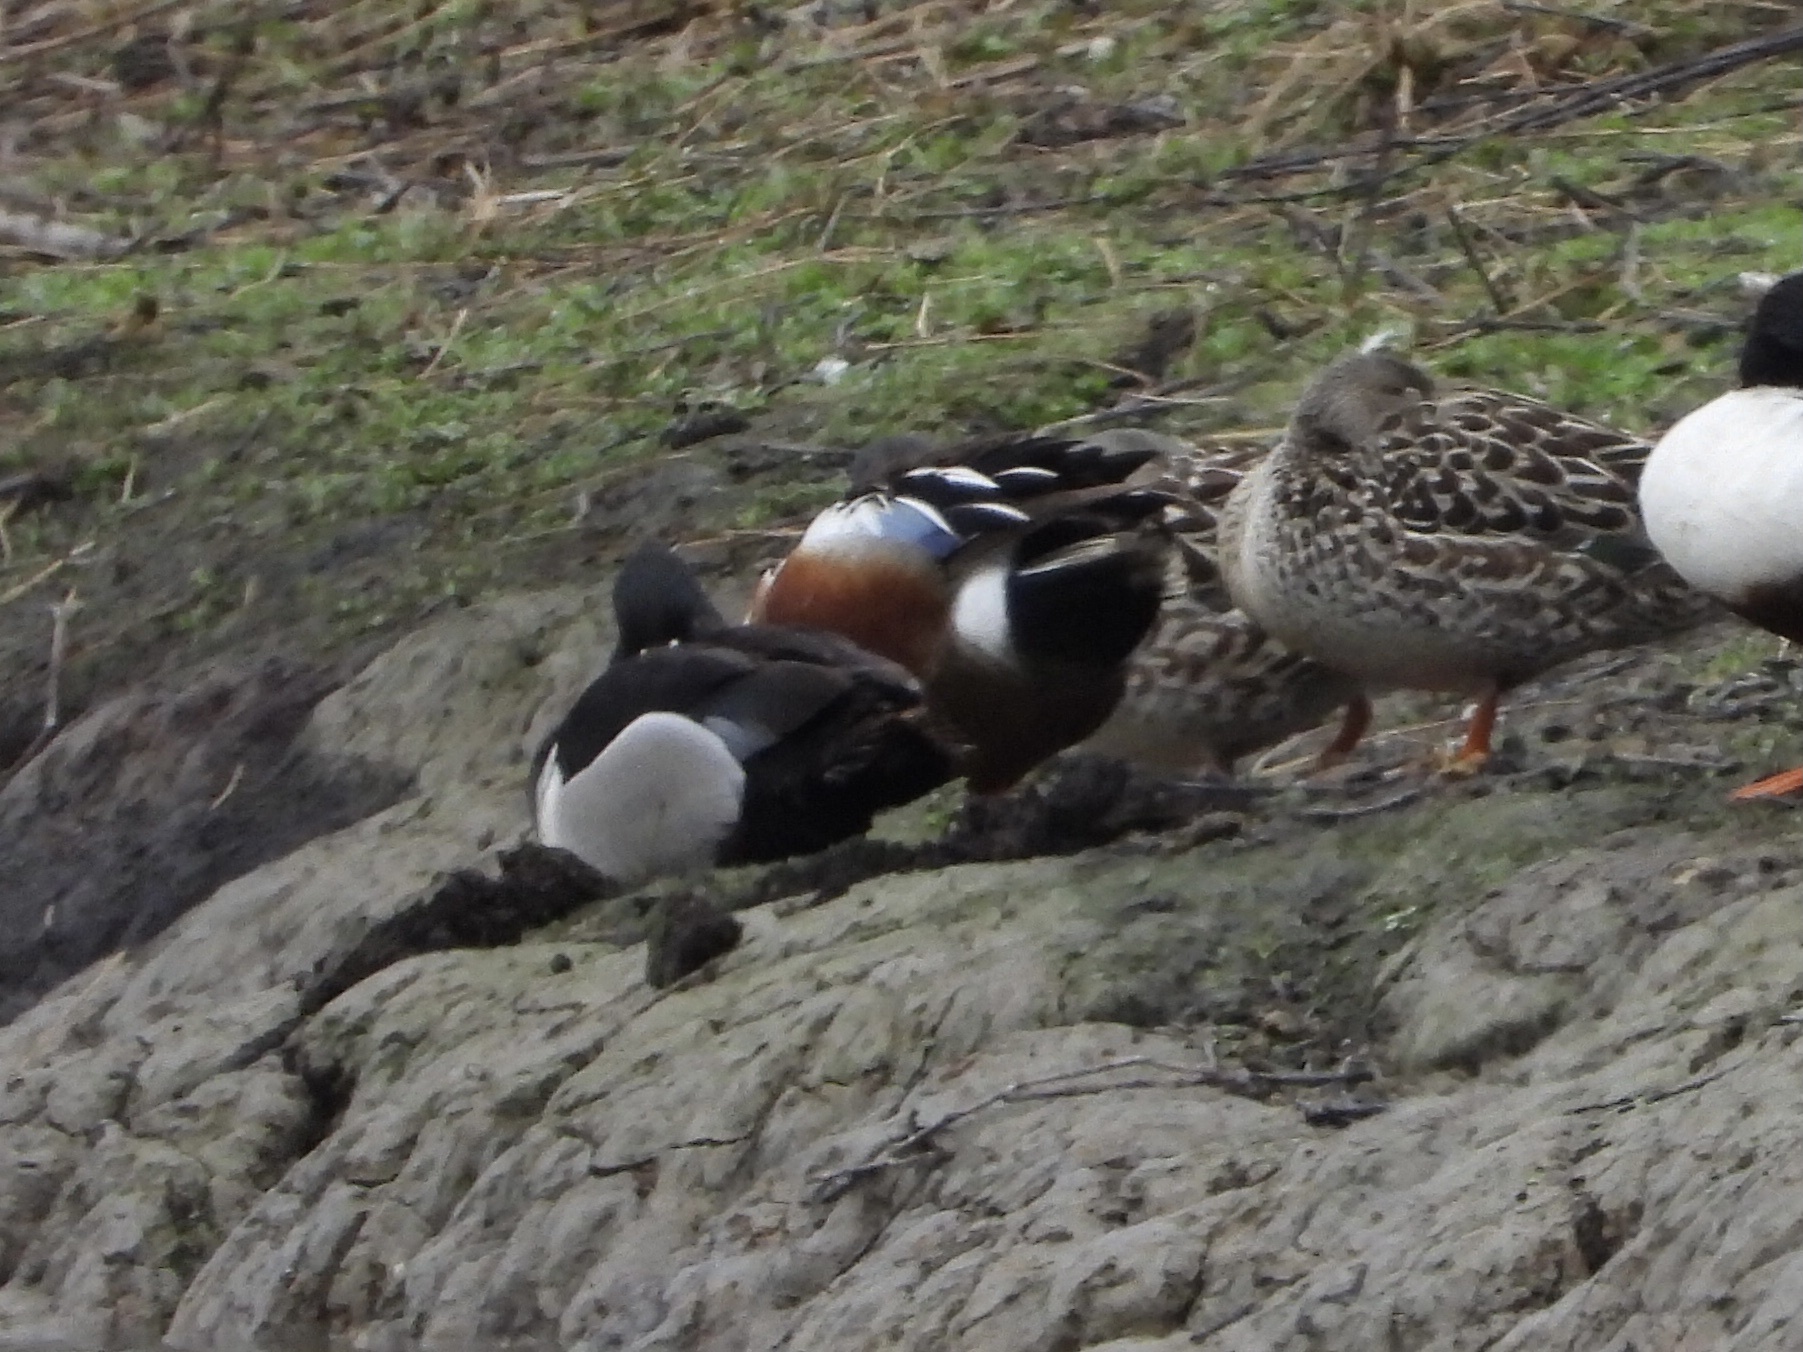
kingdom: Animalia
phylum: Chordata
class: Aves
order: Anseriformes
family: Anatidae
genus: Aythya
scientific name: Aythya collaris
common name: Ring-necked duck
